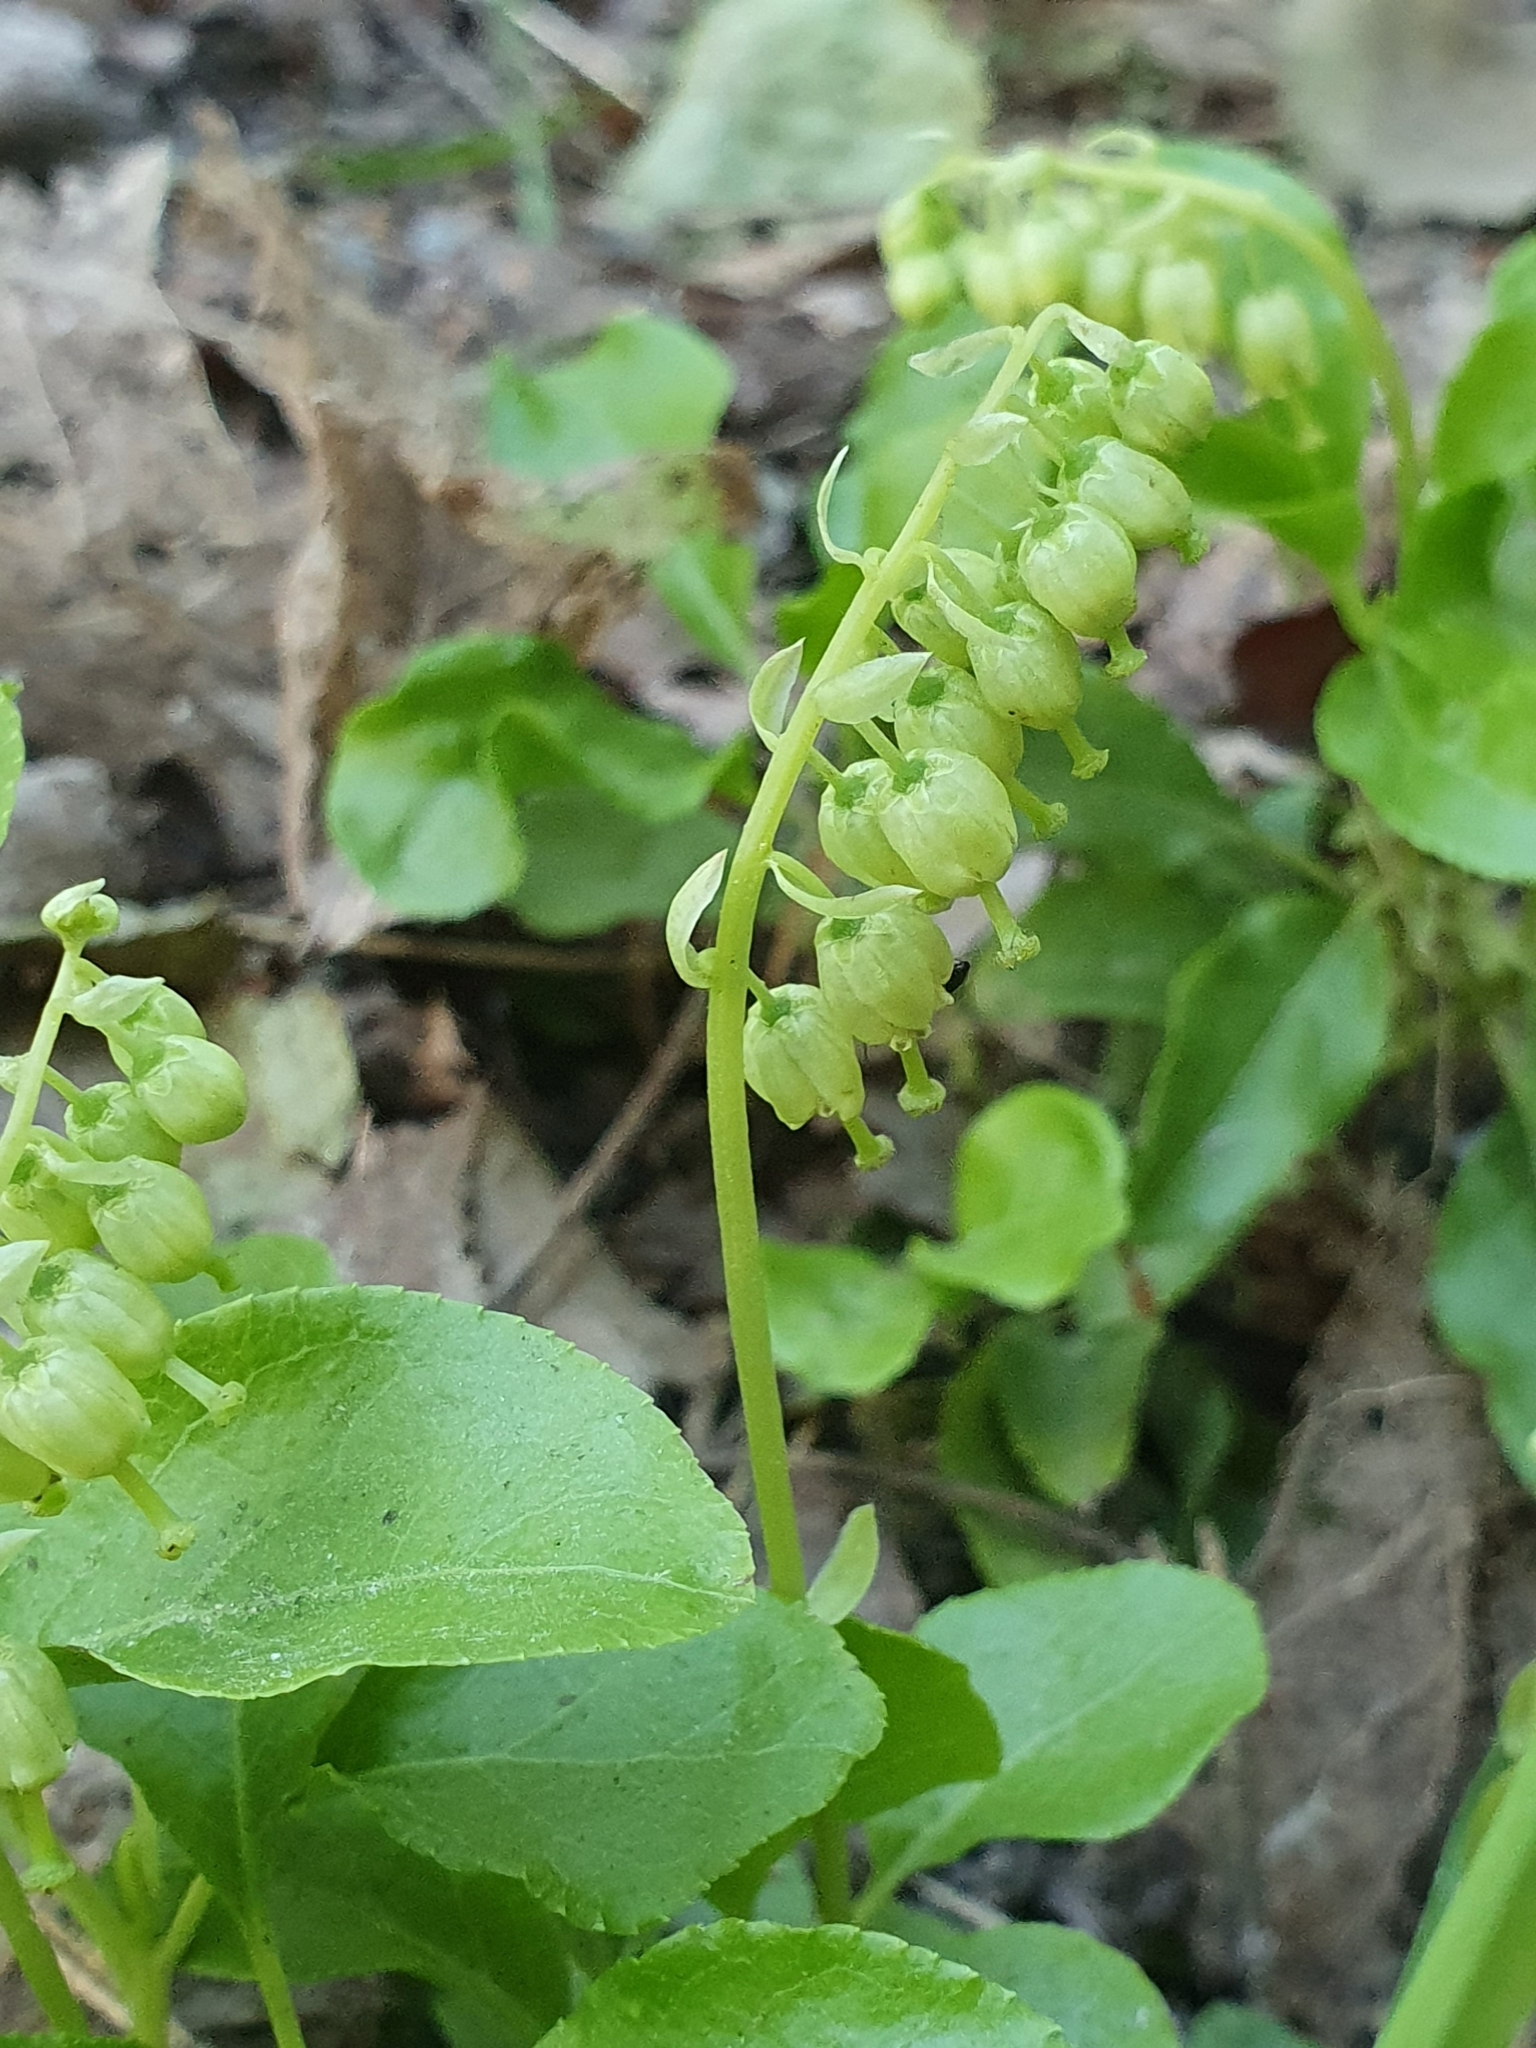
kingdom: Plantae
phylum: Tracheophyta
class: Magnoliopsida
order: Ericales
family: Ericaceae
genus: Orthilia
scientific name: Orthilia secunda
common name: One-sided orthilia
